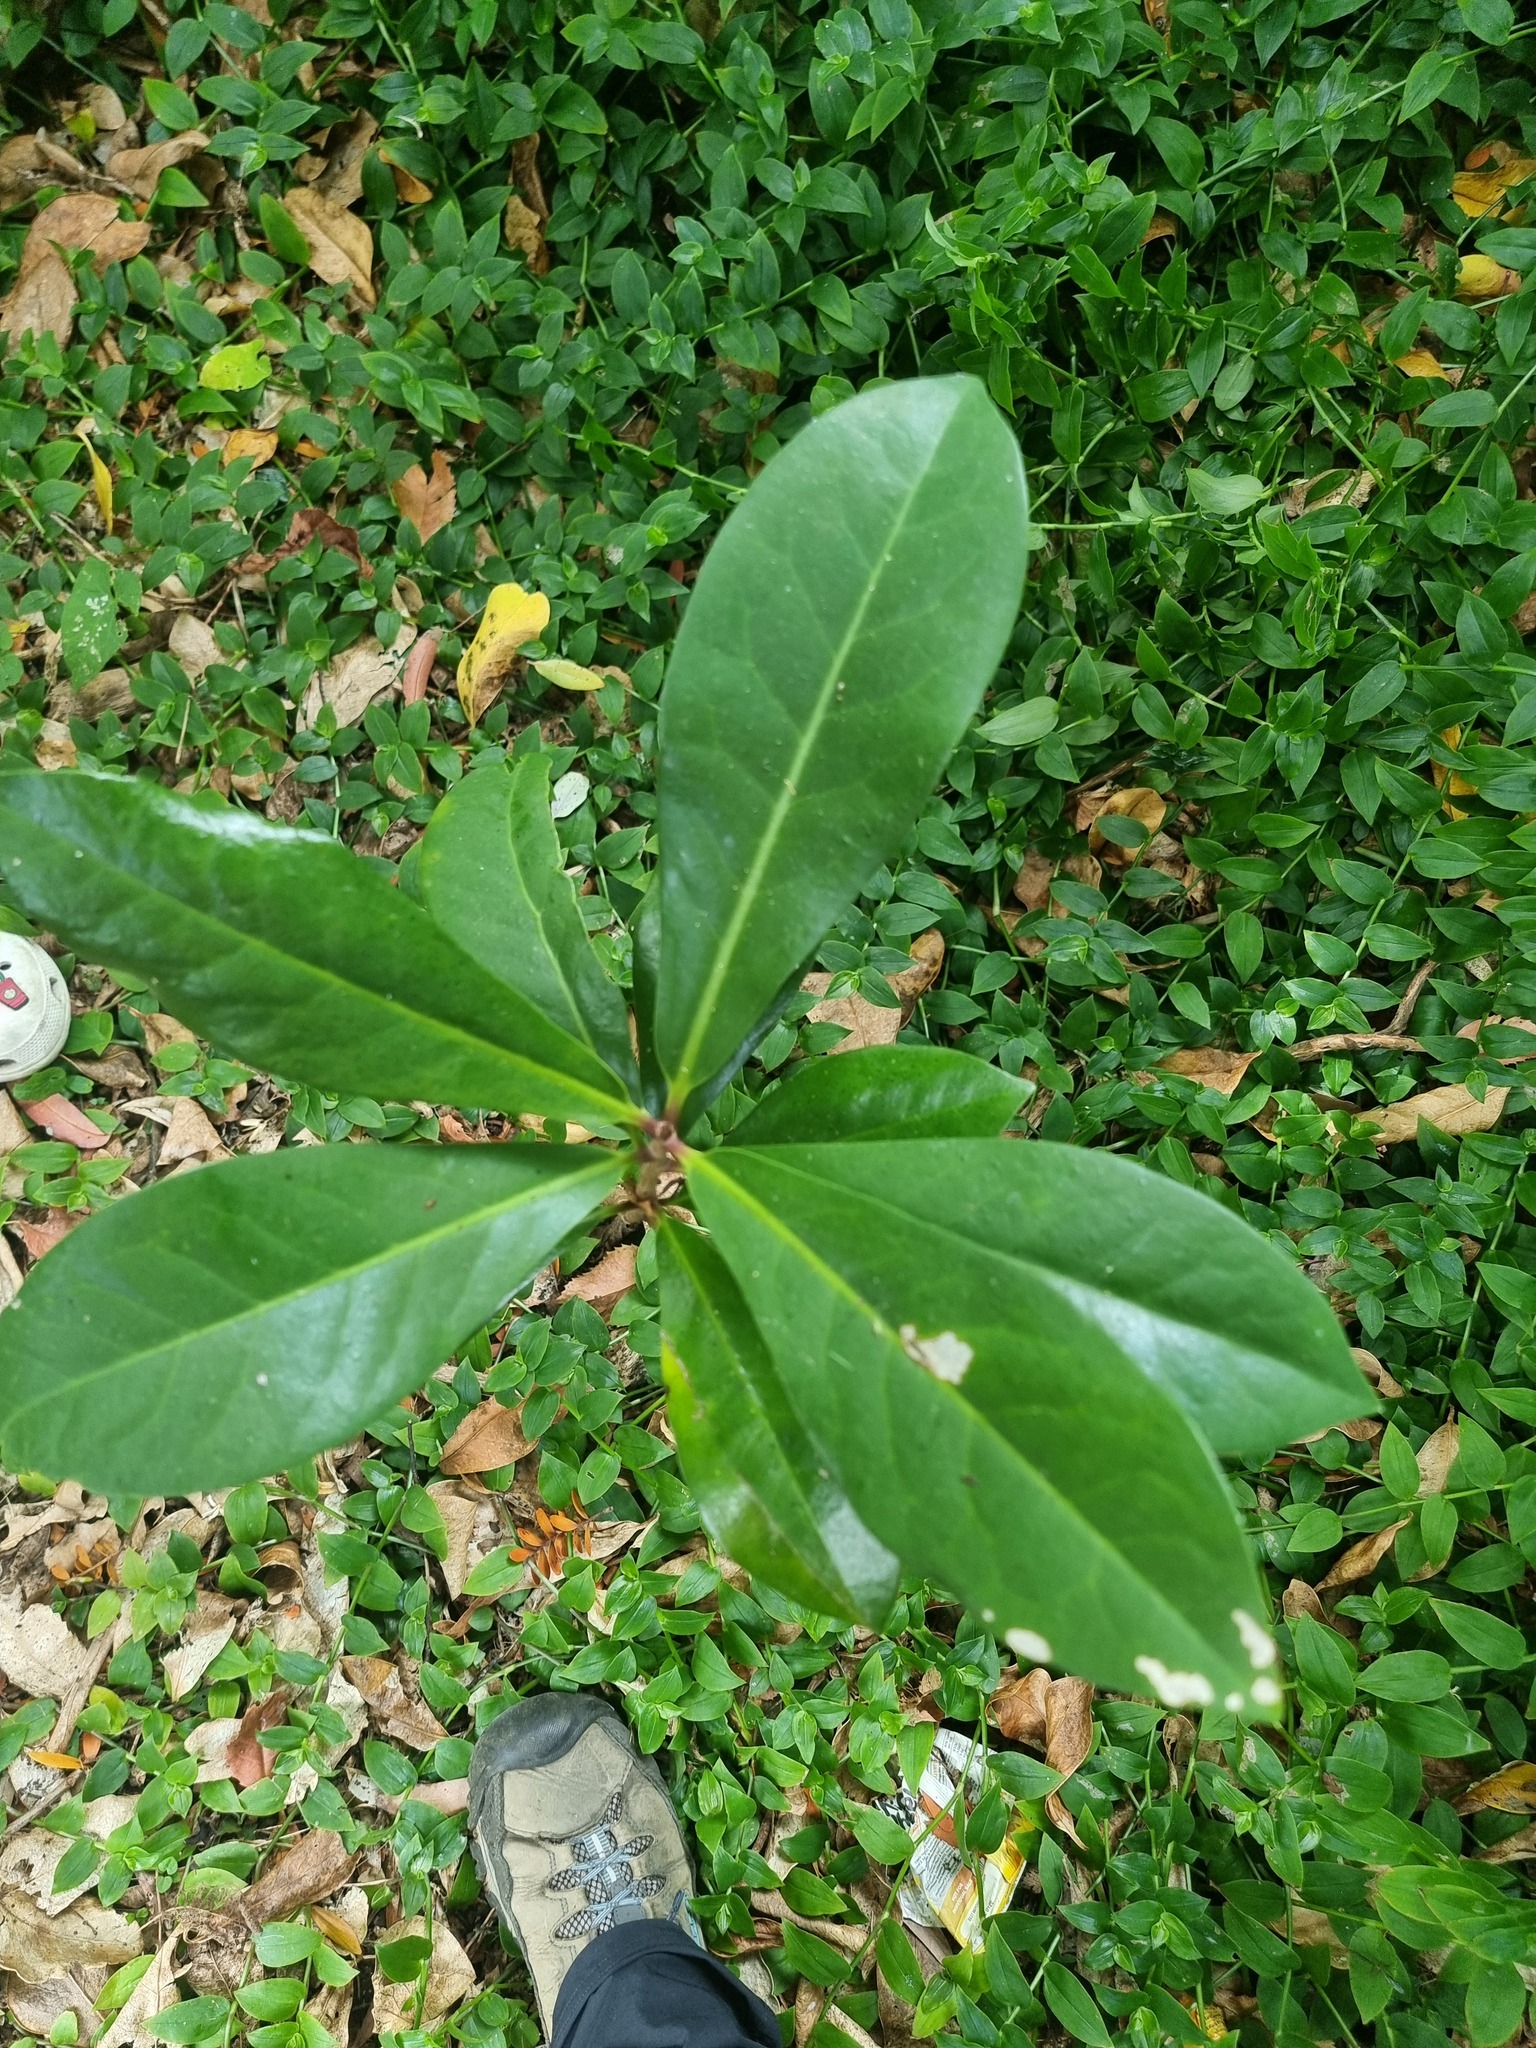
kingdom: Plantae
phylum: Tracheophyta
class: Magnoliopsida
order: Cucurbitales
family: Corynocarpaceae
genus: Corynocarpus
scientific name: Corynocarpus laevigatus
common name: New zealand laurel
